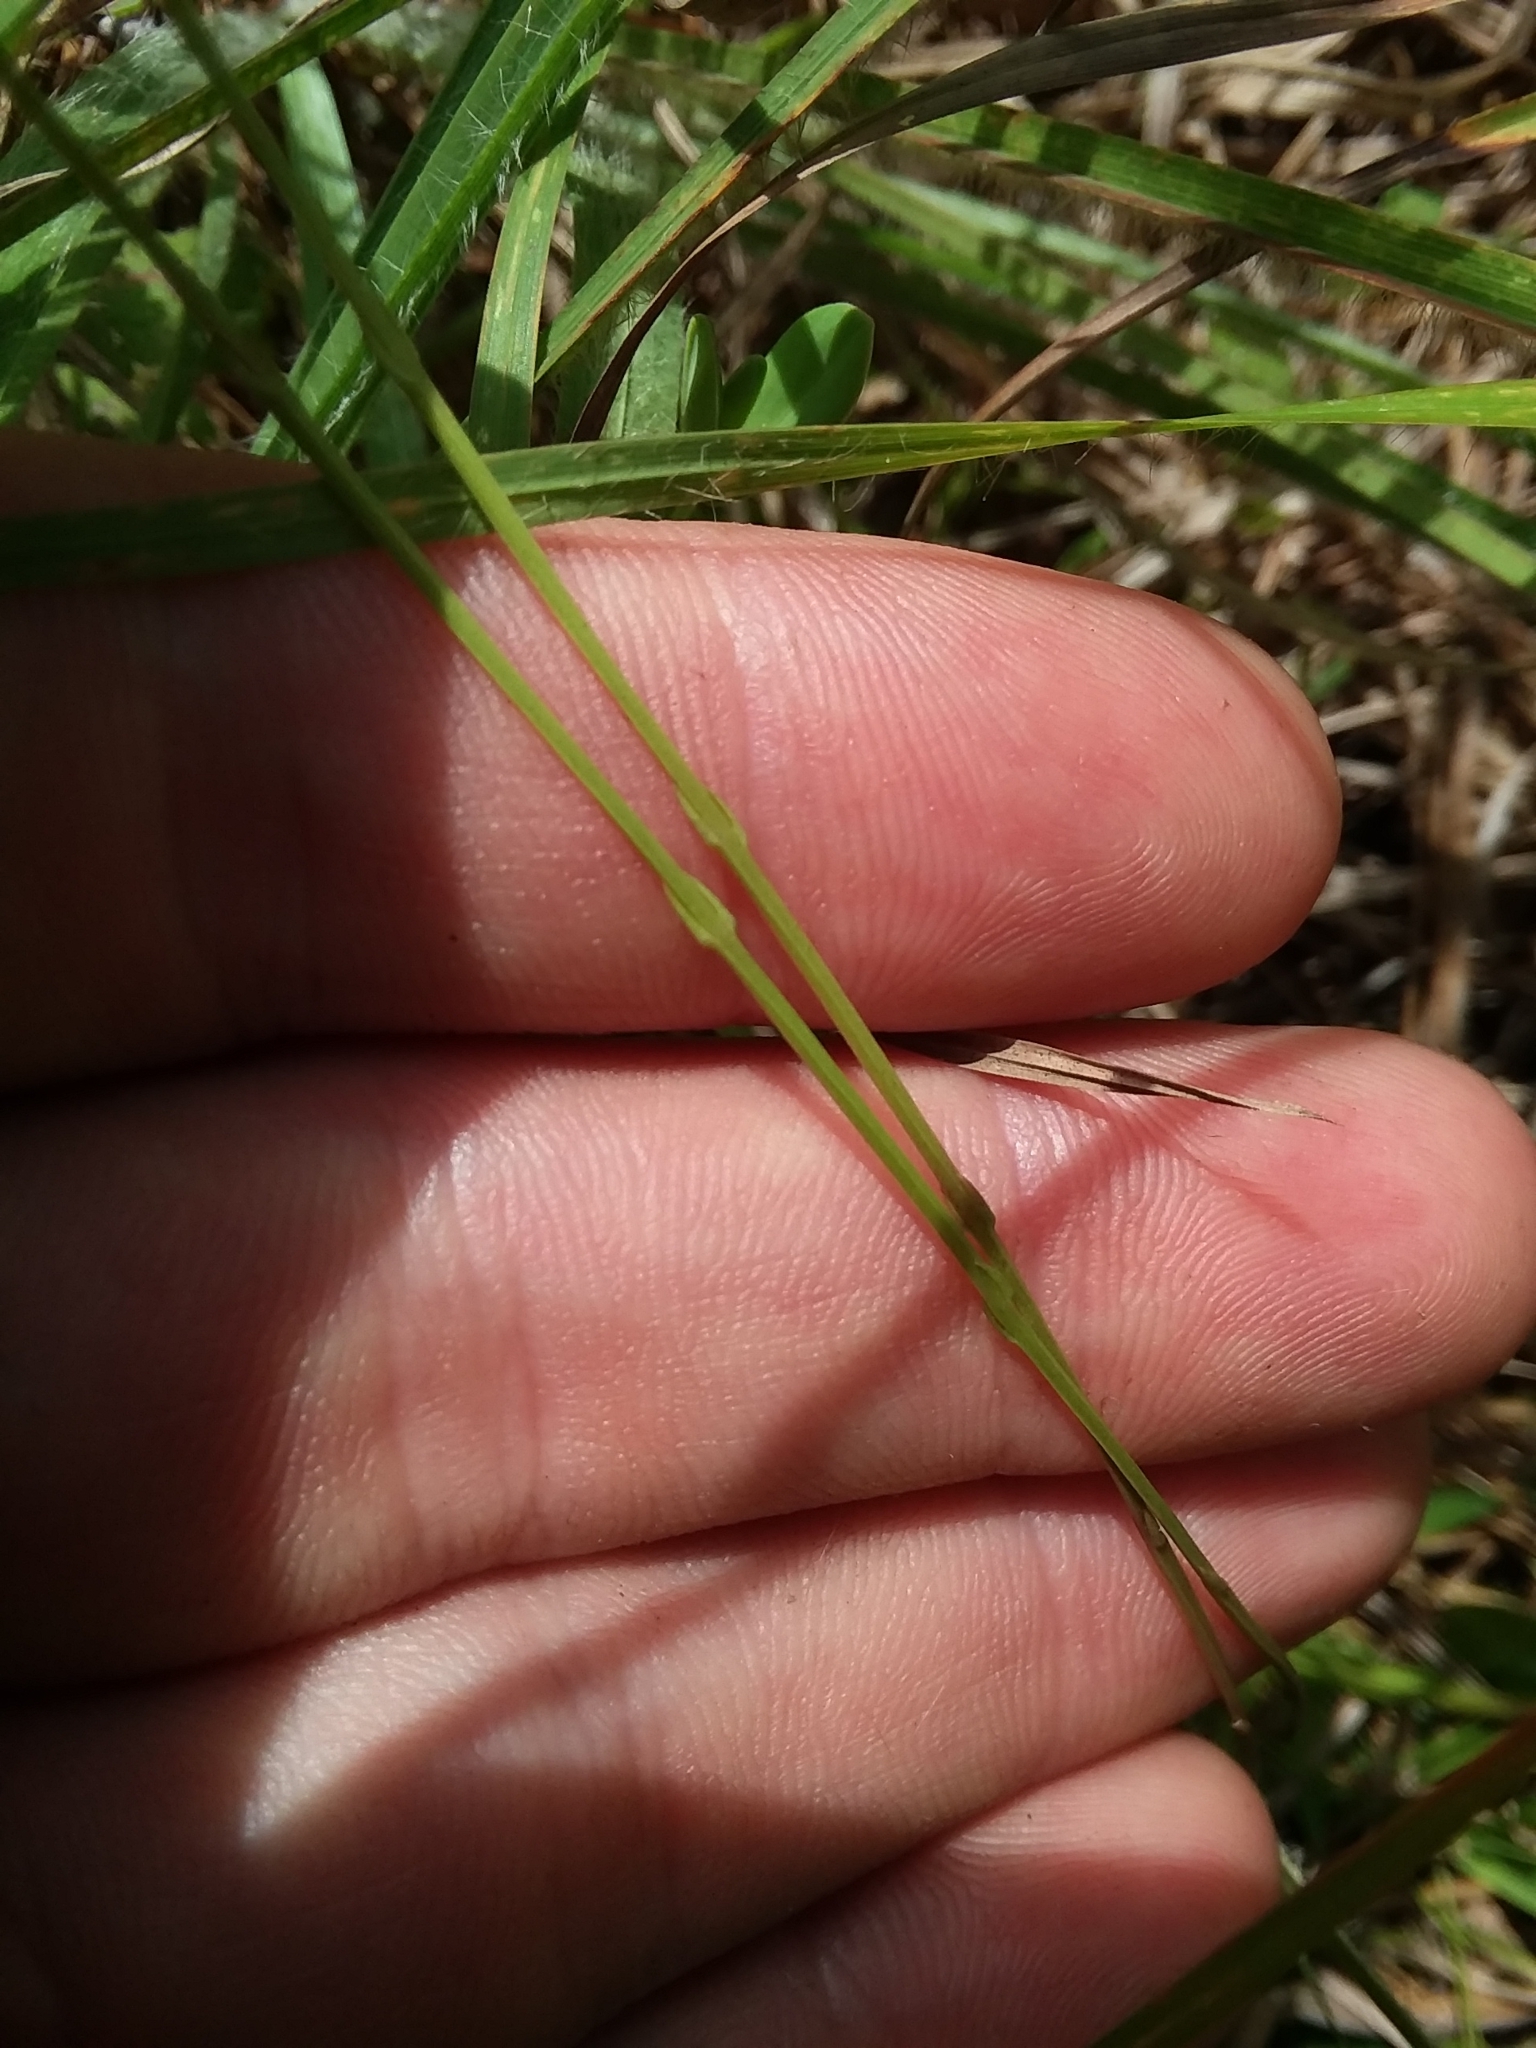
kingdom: Plantae
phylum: Tracheophyta
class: Magnoliopsida
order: Gentianales
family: Gentianaceae
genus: Bartonia
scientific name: Bartonia virginica
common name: Yellow bartonia
